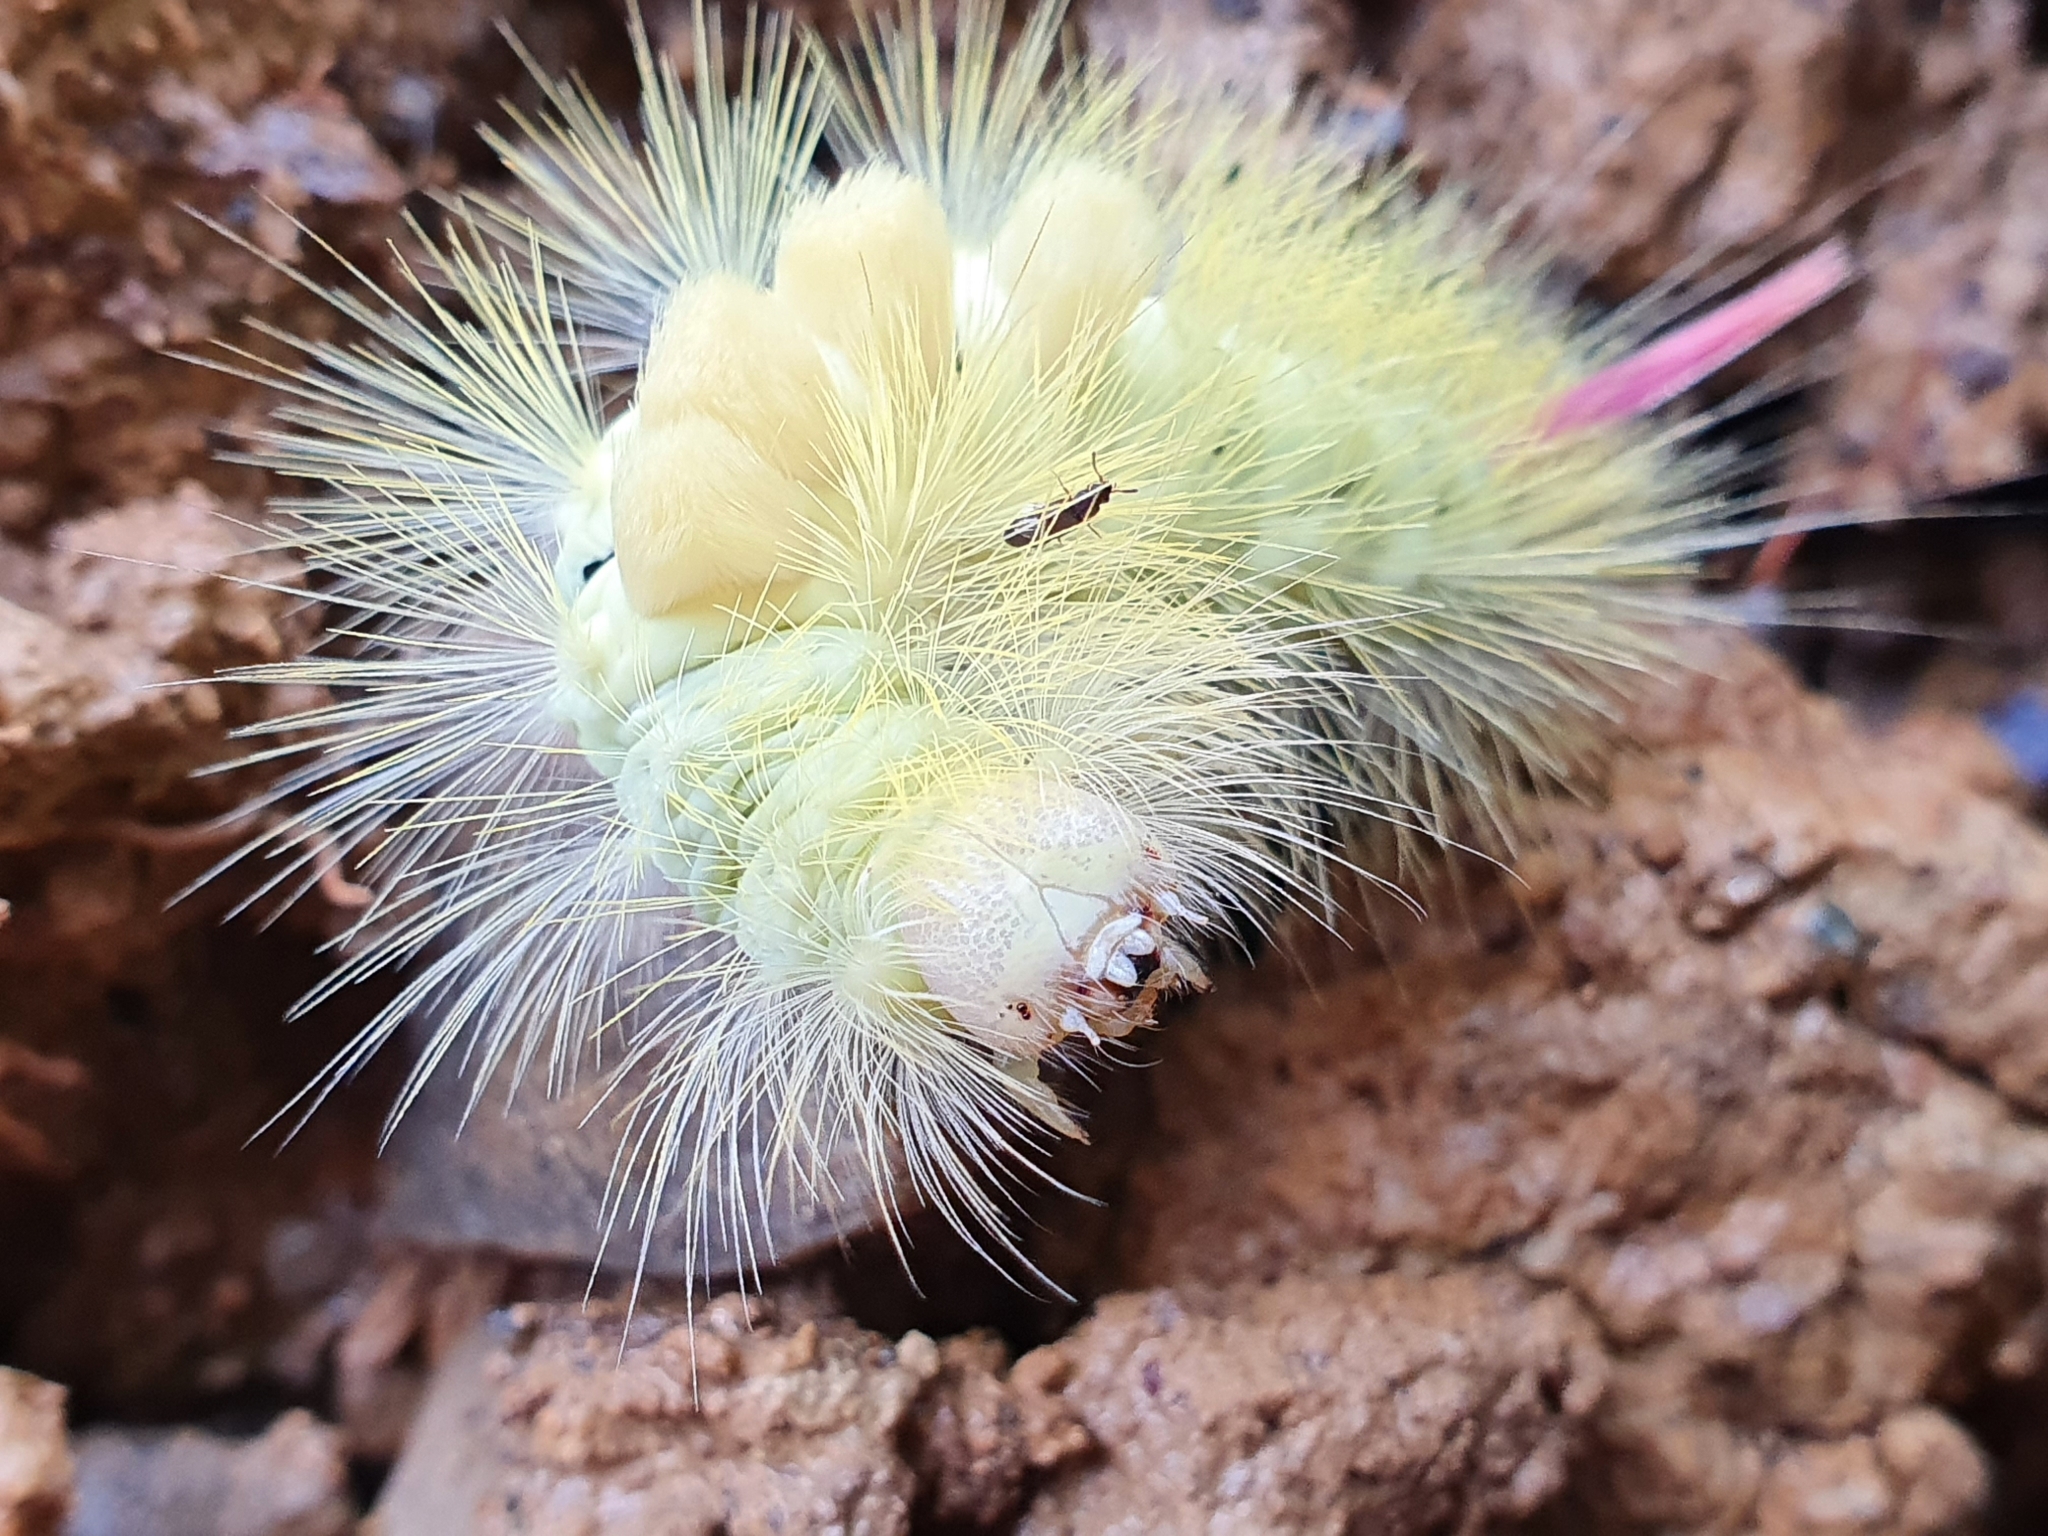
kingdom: Animalia
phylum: Arthropoda
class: Insecta
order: Lepidoptera
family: Erebidae
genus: Calliteara
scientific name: Calliteara pudibunda
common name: Pale tussock
